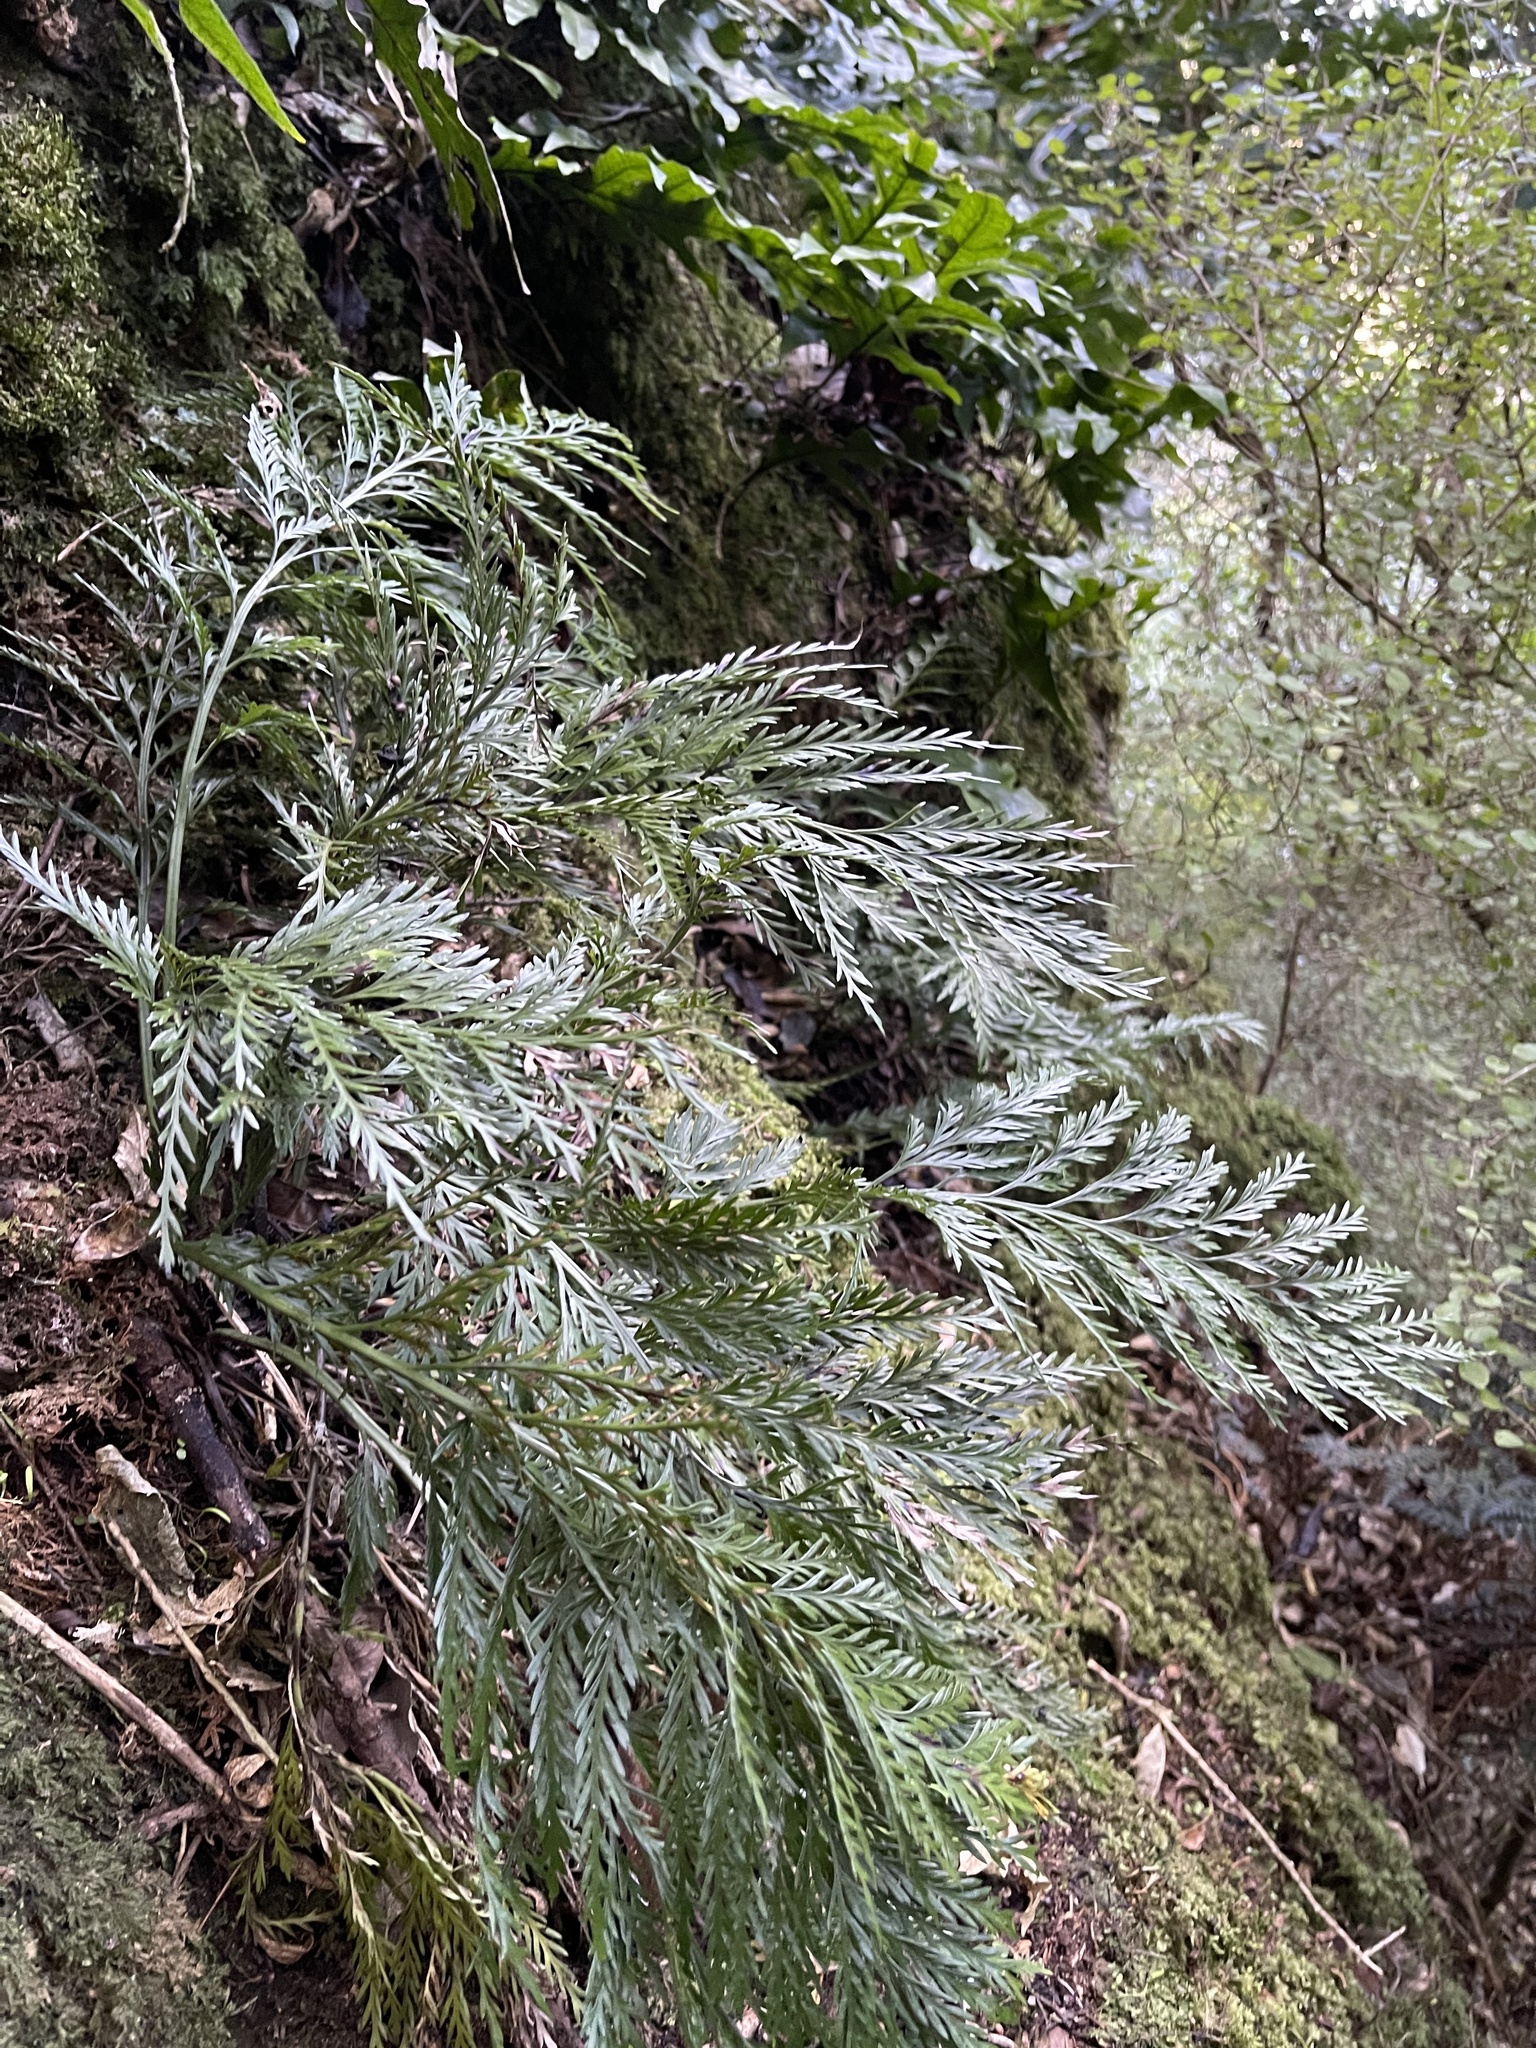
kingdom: Plantae
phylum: Tracheophyta
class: Polypodiopsida
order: Polypodiales
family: Aspleniaceae
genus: Asplenium
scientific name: Asplenium appendiculatum
